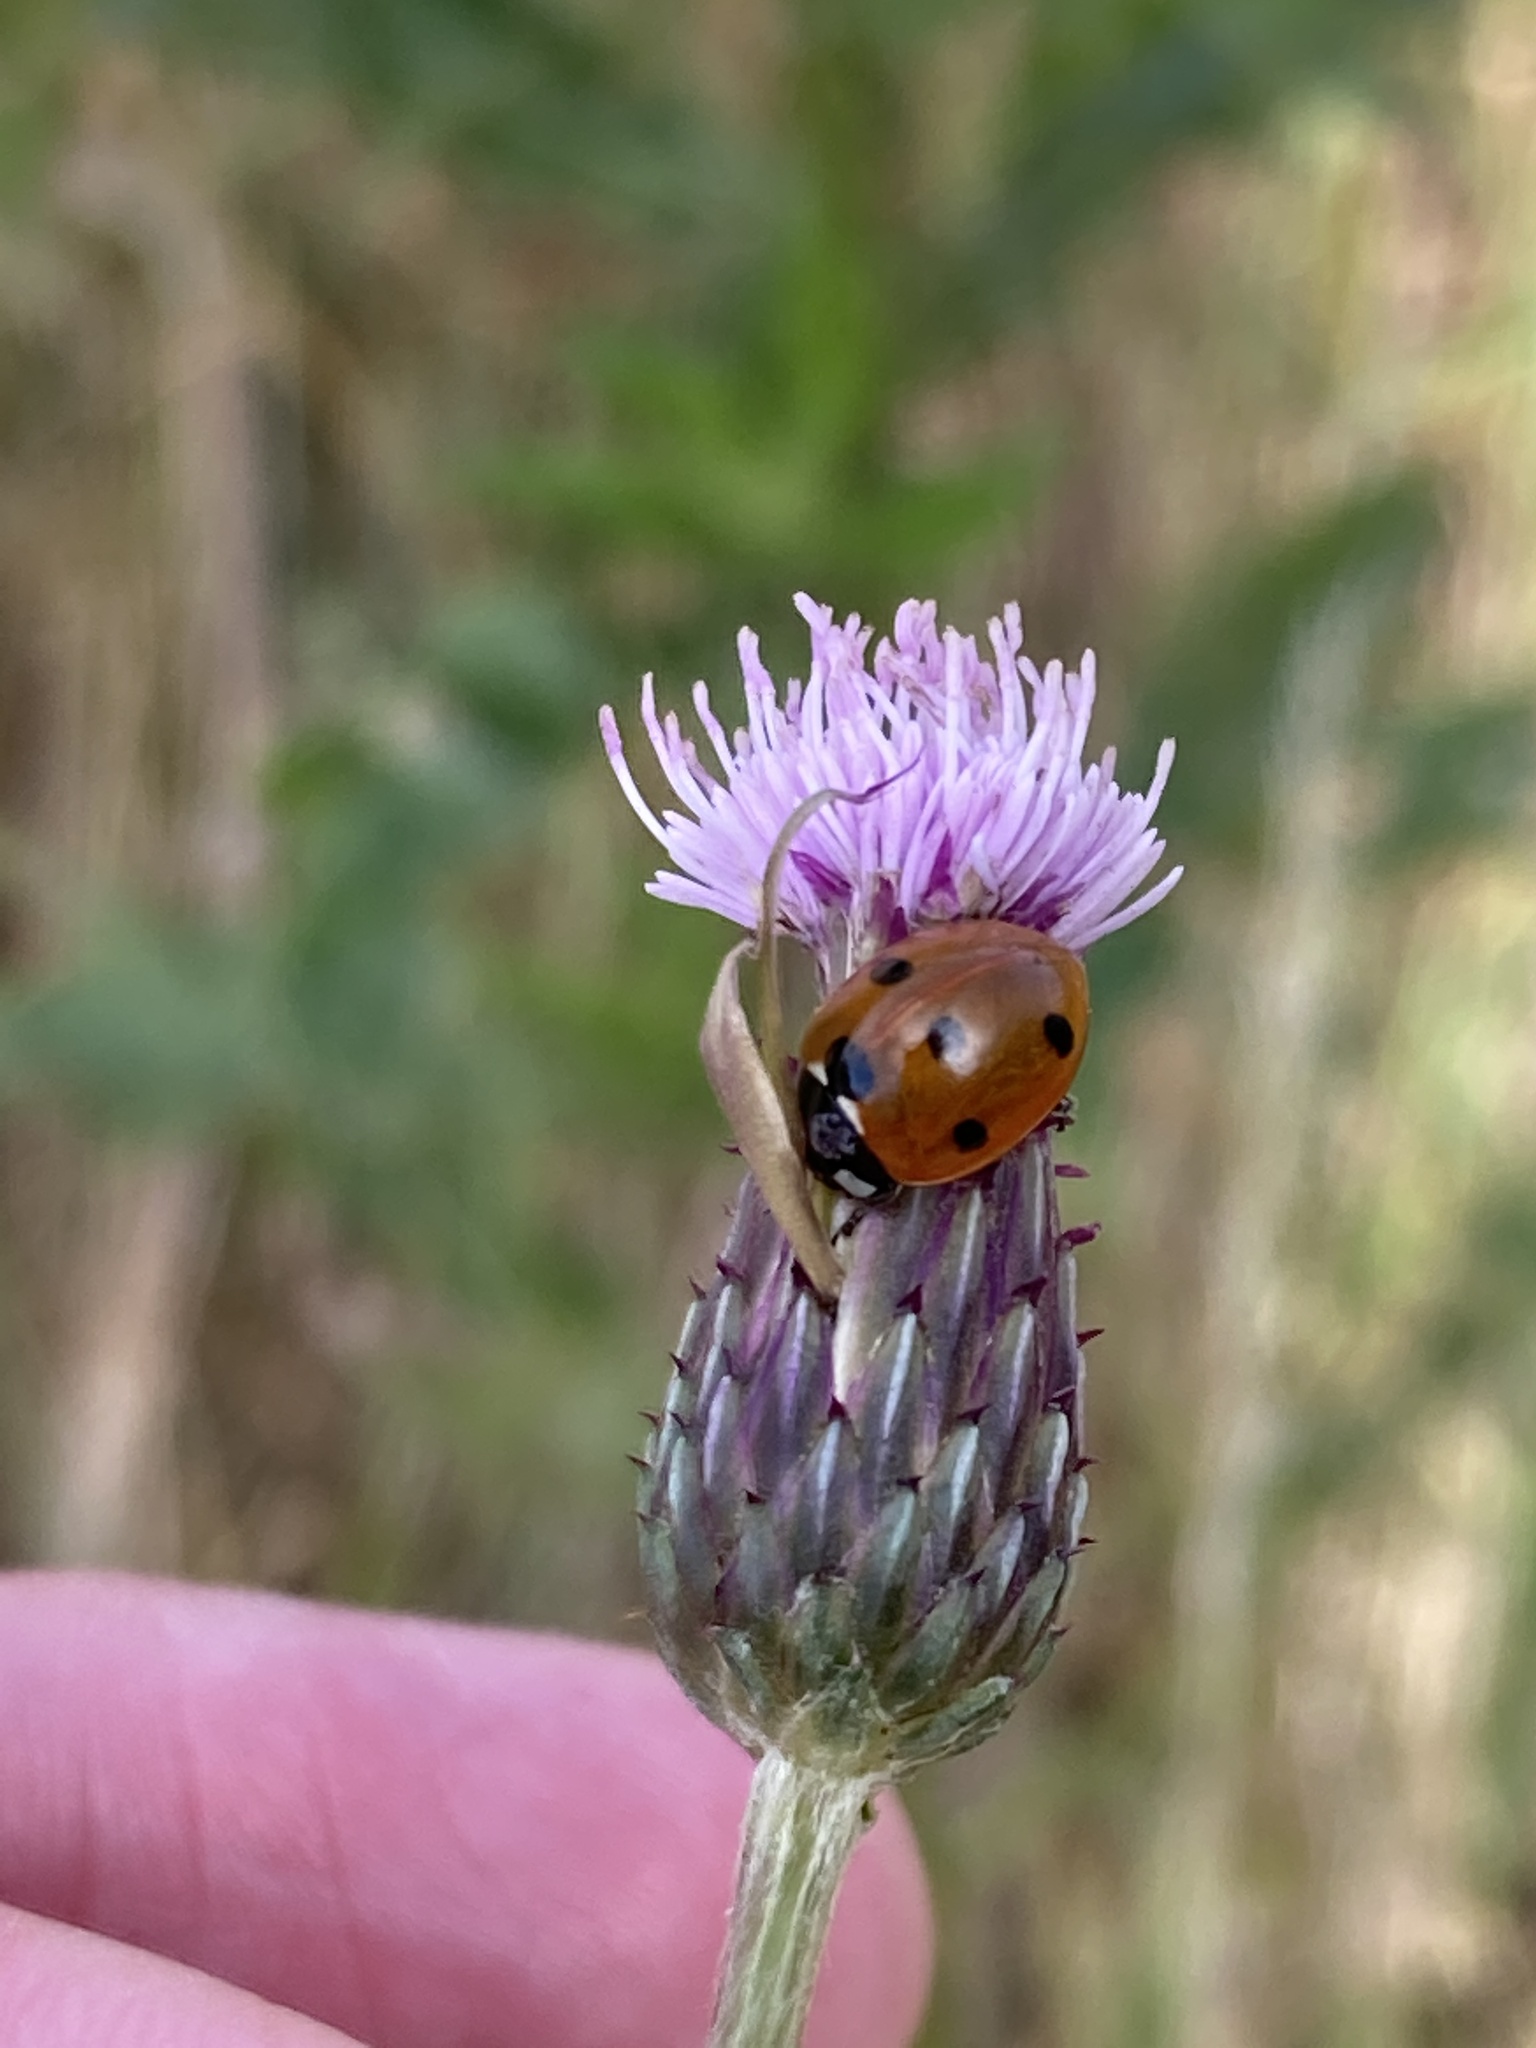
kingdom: Animalia
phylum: Arthropoda
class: Insecta
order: Coleoptera
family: Coccinellidae
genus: Coccinella
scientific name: Coccinella septempunctata
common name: Sevenspotted lady beetle
